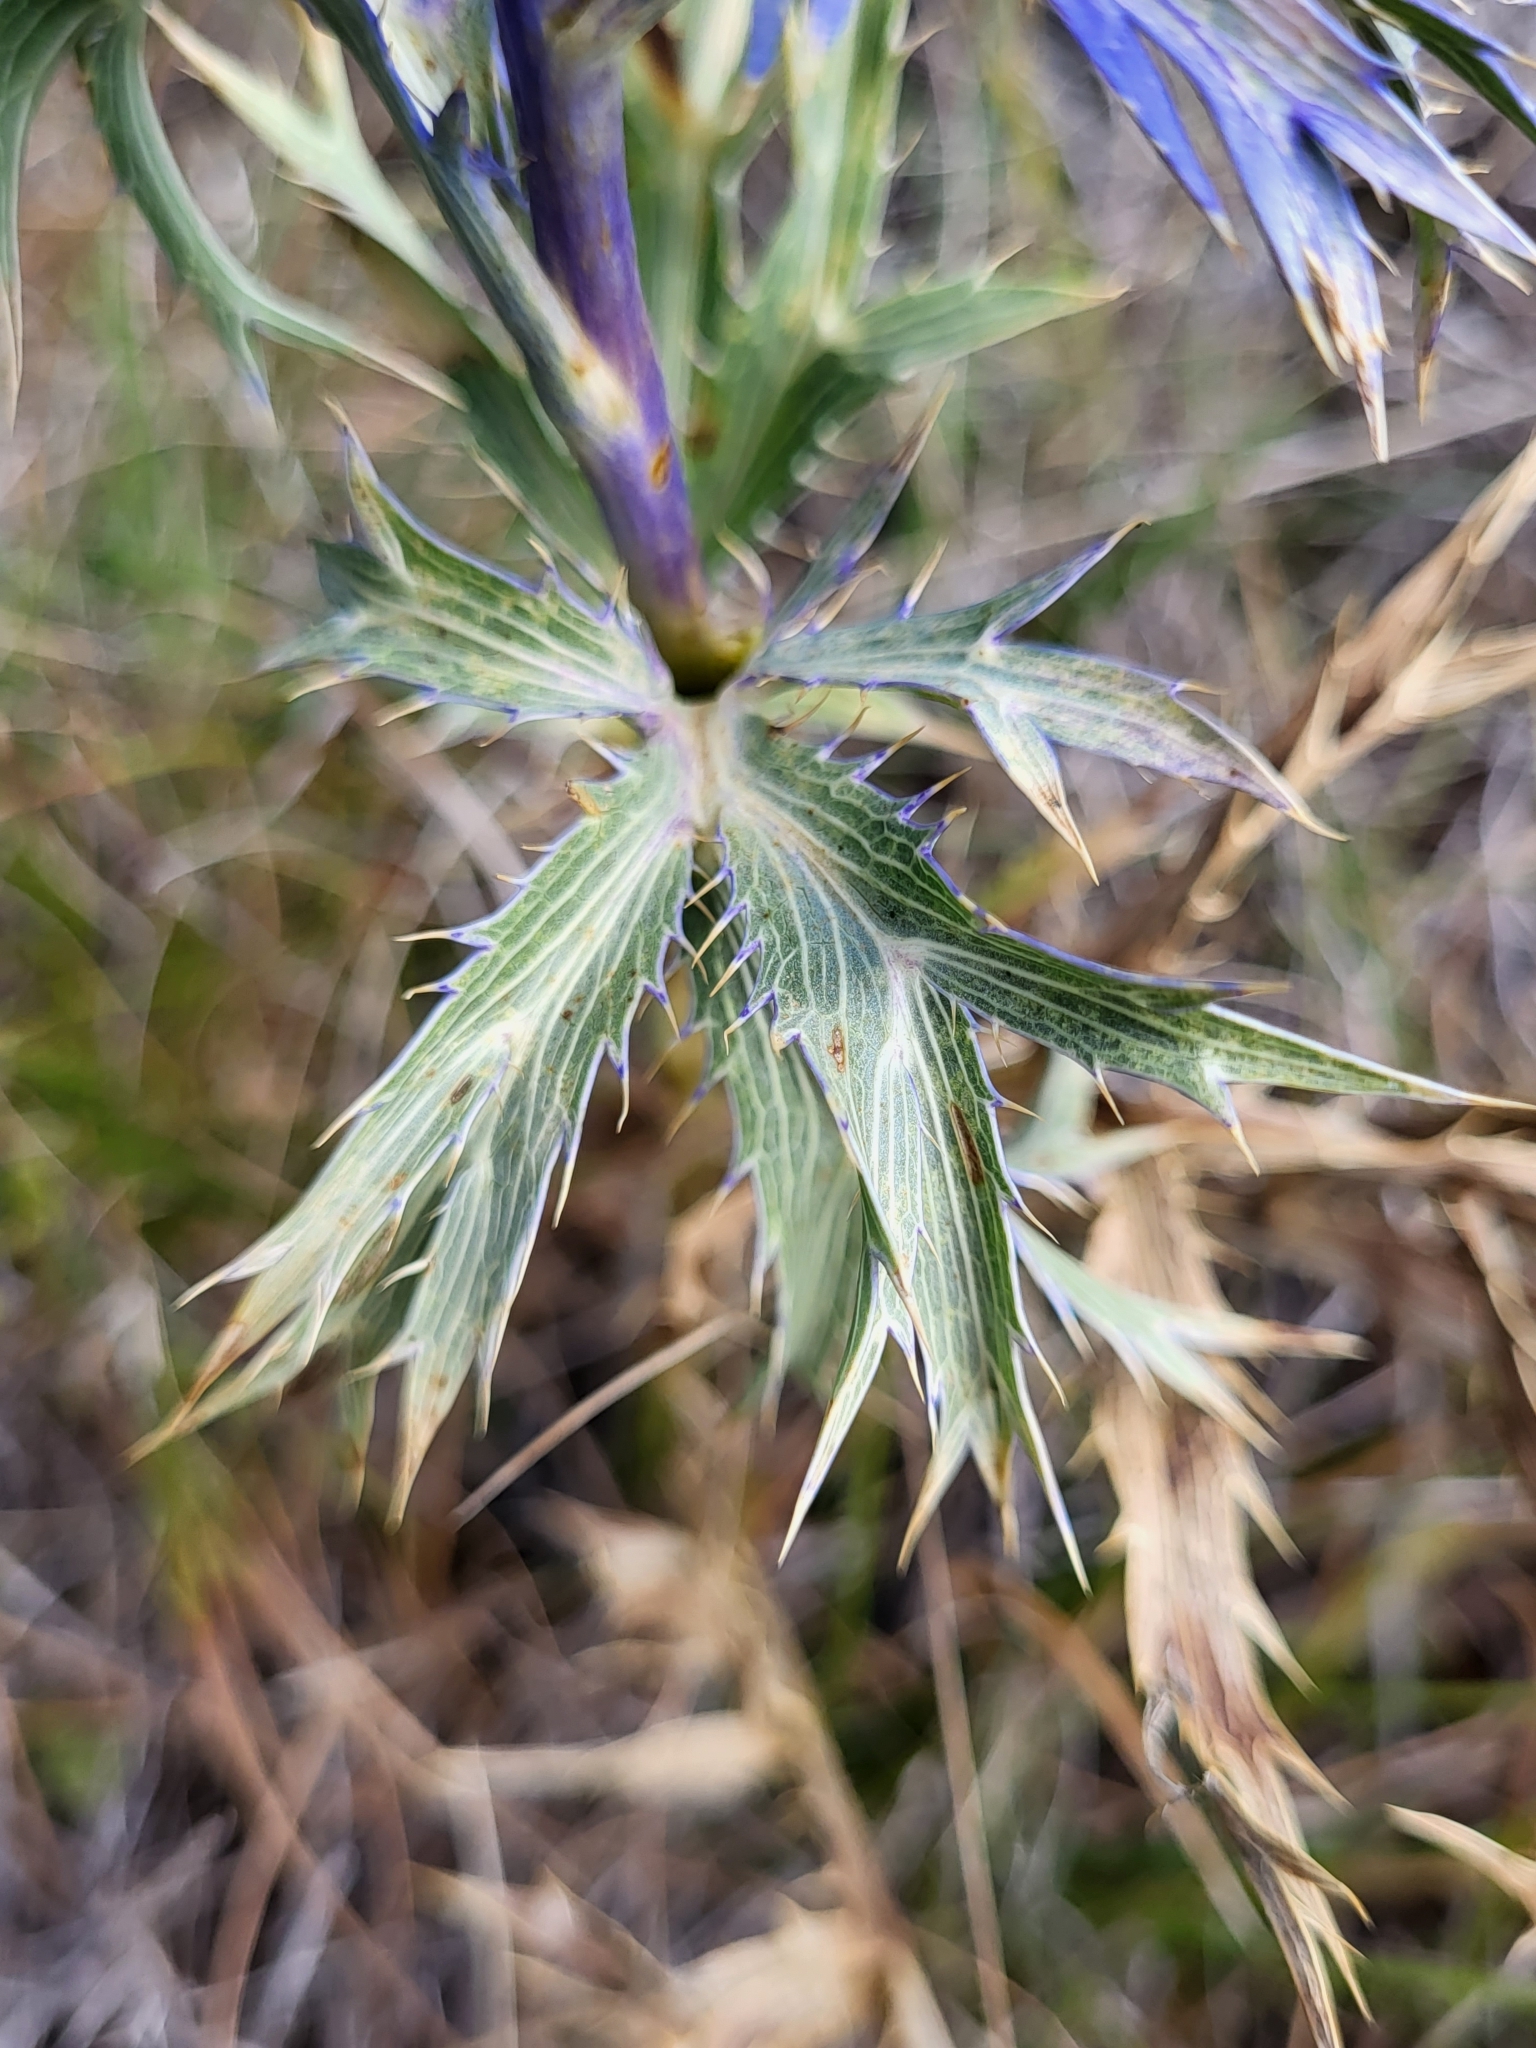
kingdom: Plantae
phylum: Tracheophyta
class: Magnoliopsida
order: Apiales
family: Apiaceae
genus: Eryngium
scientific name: Eryngium amethystinum
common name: Amethyst eryngo
